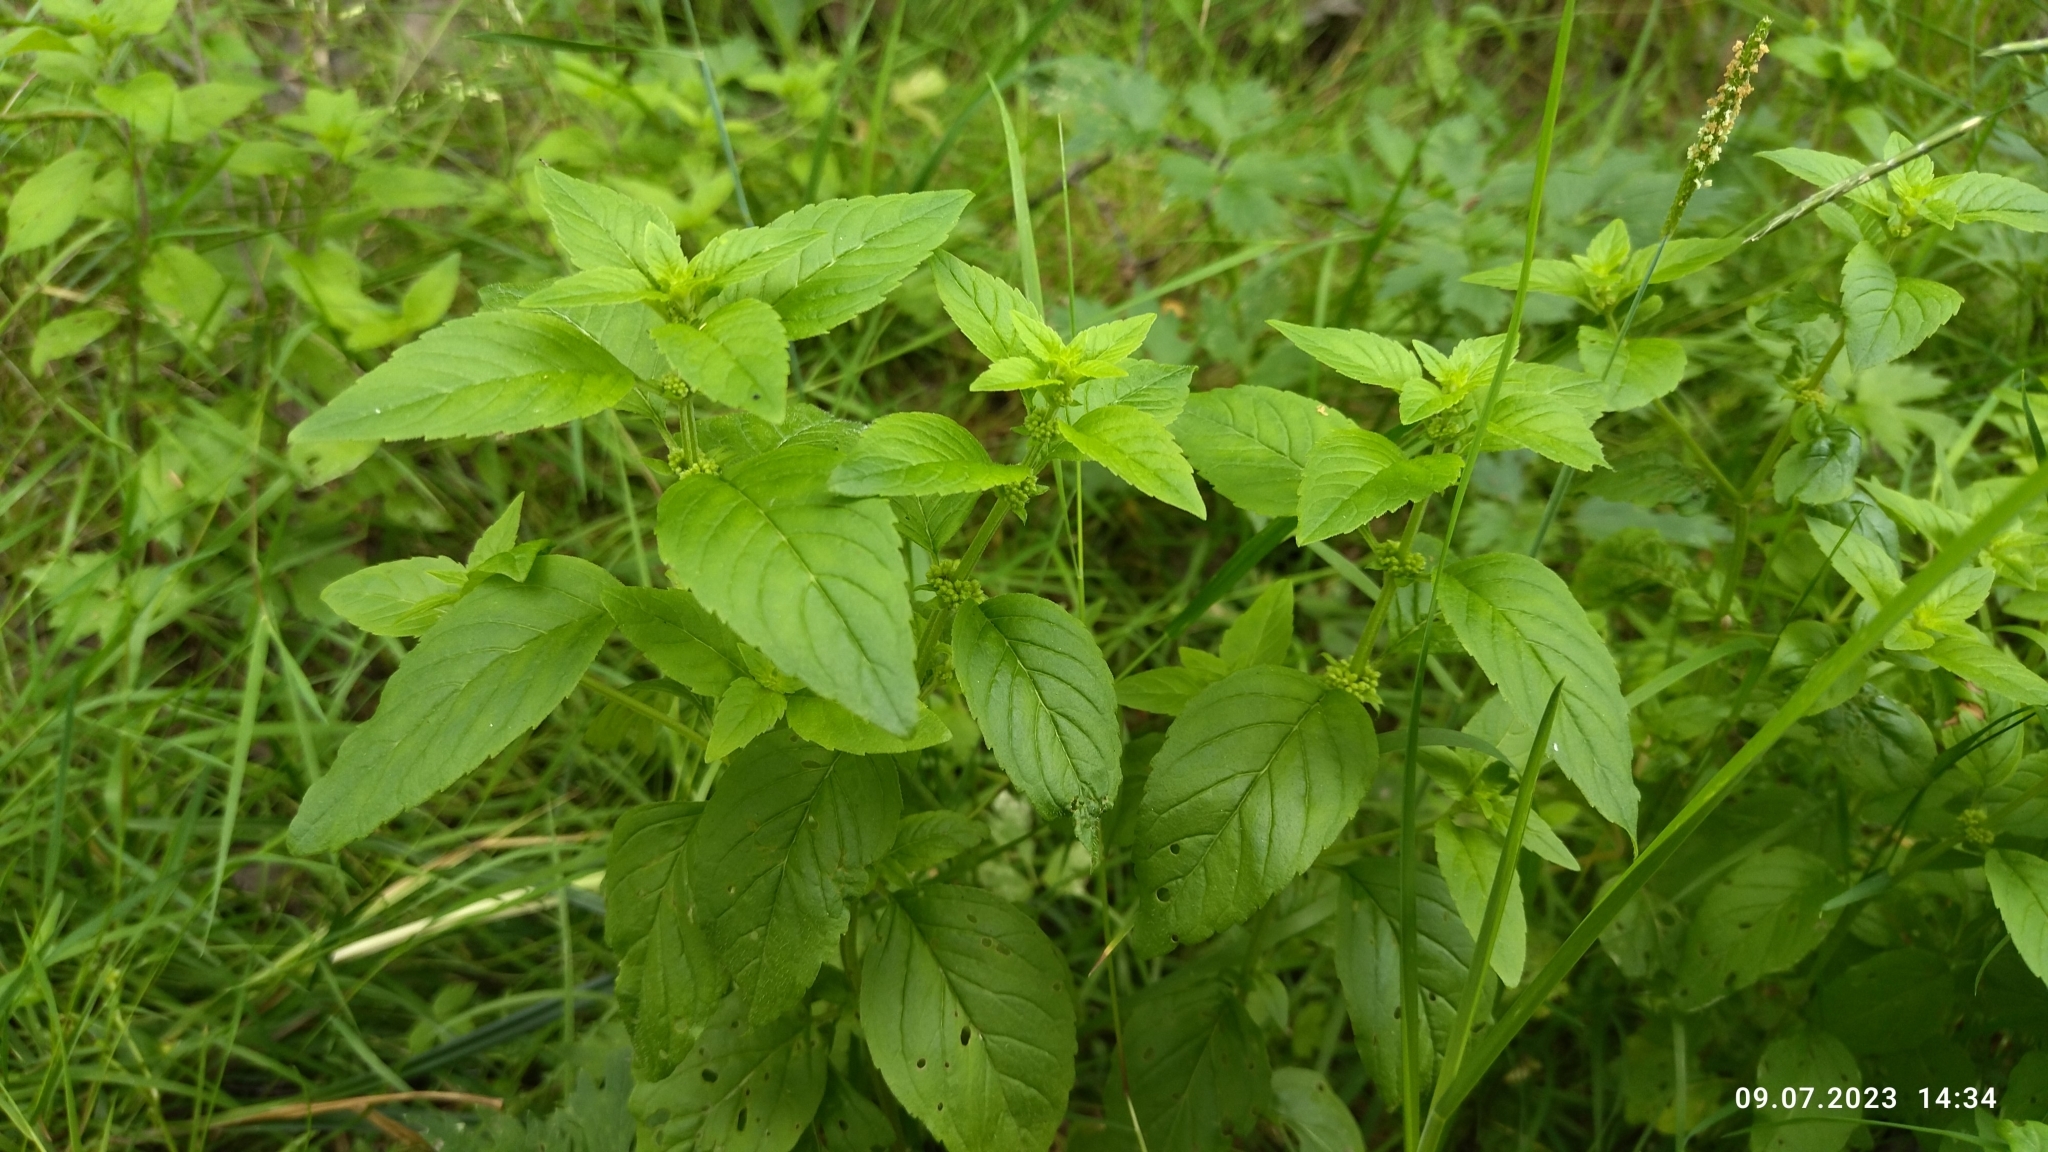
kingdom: Plantae
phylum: Tracheophyta
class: Magnoliopsida
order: Lamiales
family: Lamiaceae
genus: Mentha
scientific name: Mentha arvensis
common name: Corn mint
